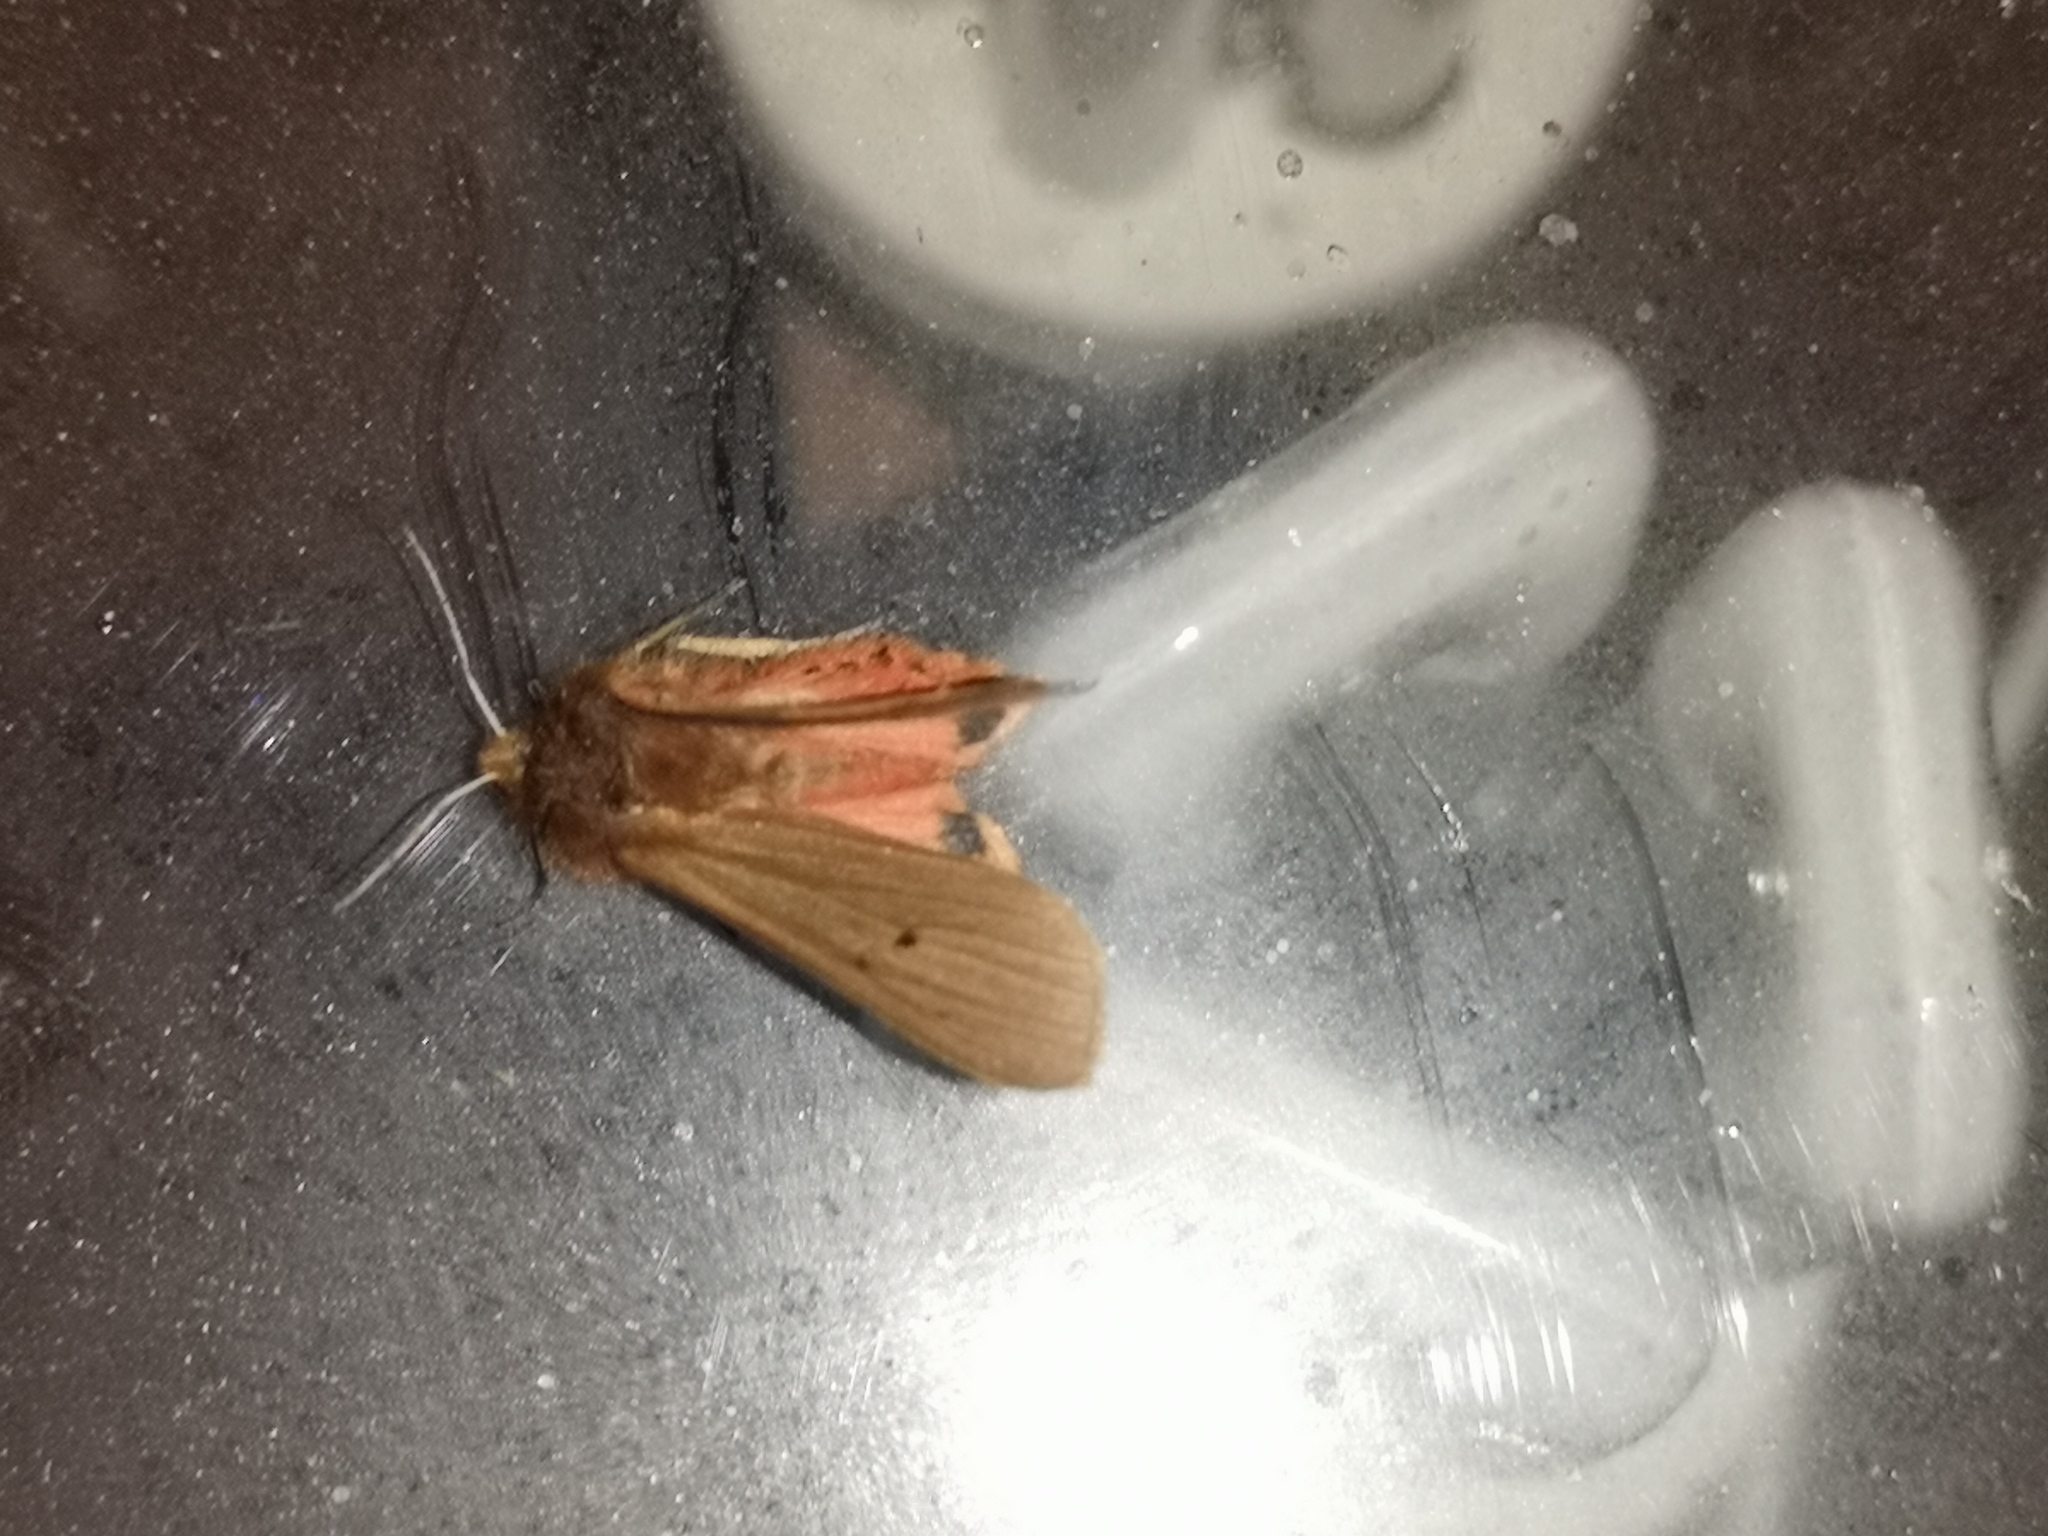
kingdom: Animalia
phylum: Arthropoda
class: Insecta
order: Lepidoptera
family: Erebidae
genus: Phragmatobia
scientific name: Phragmatobia fuliginosa
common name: Ruby tiger
